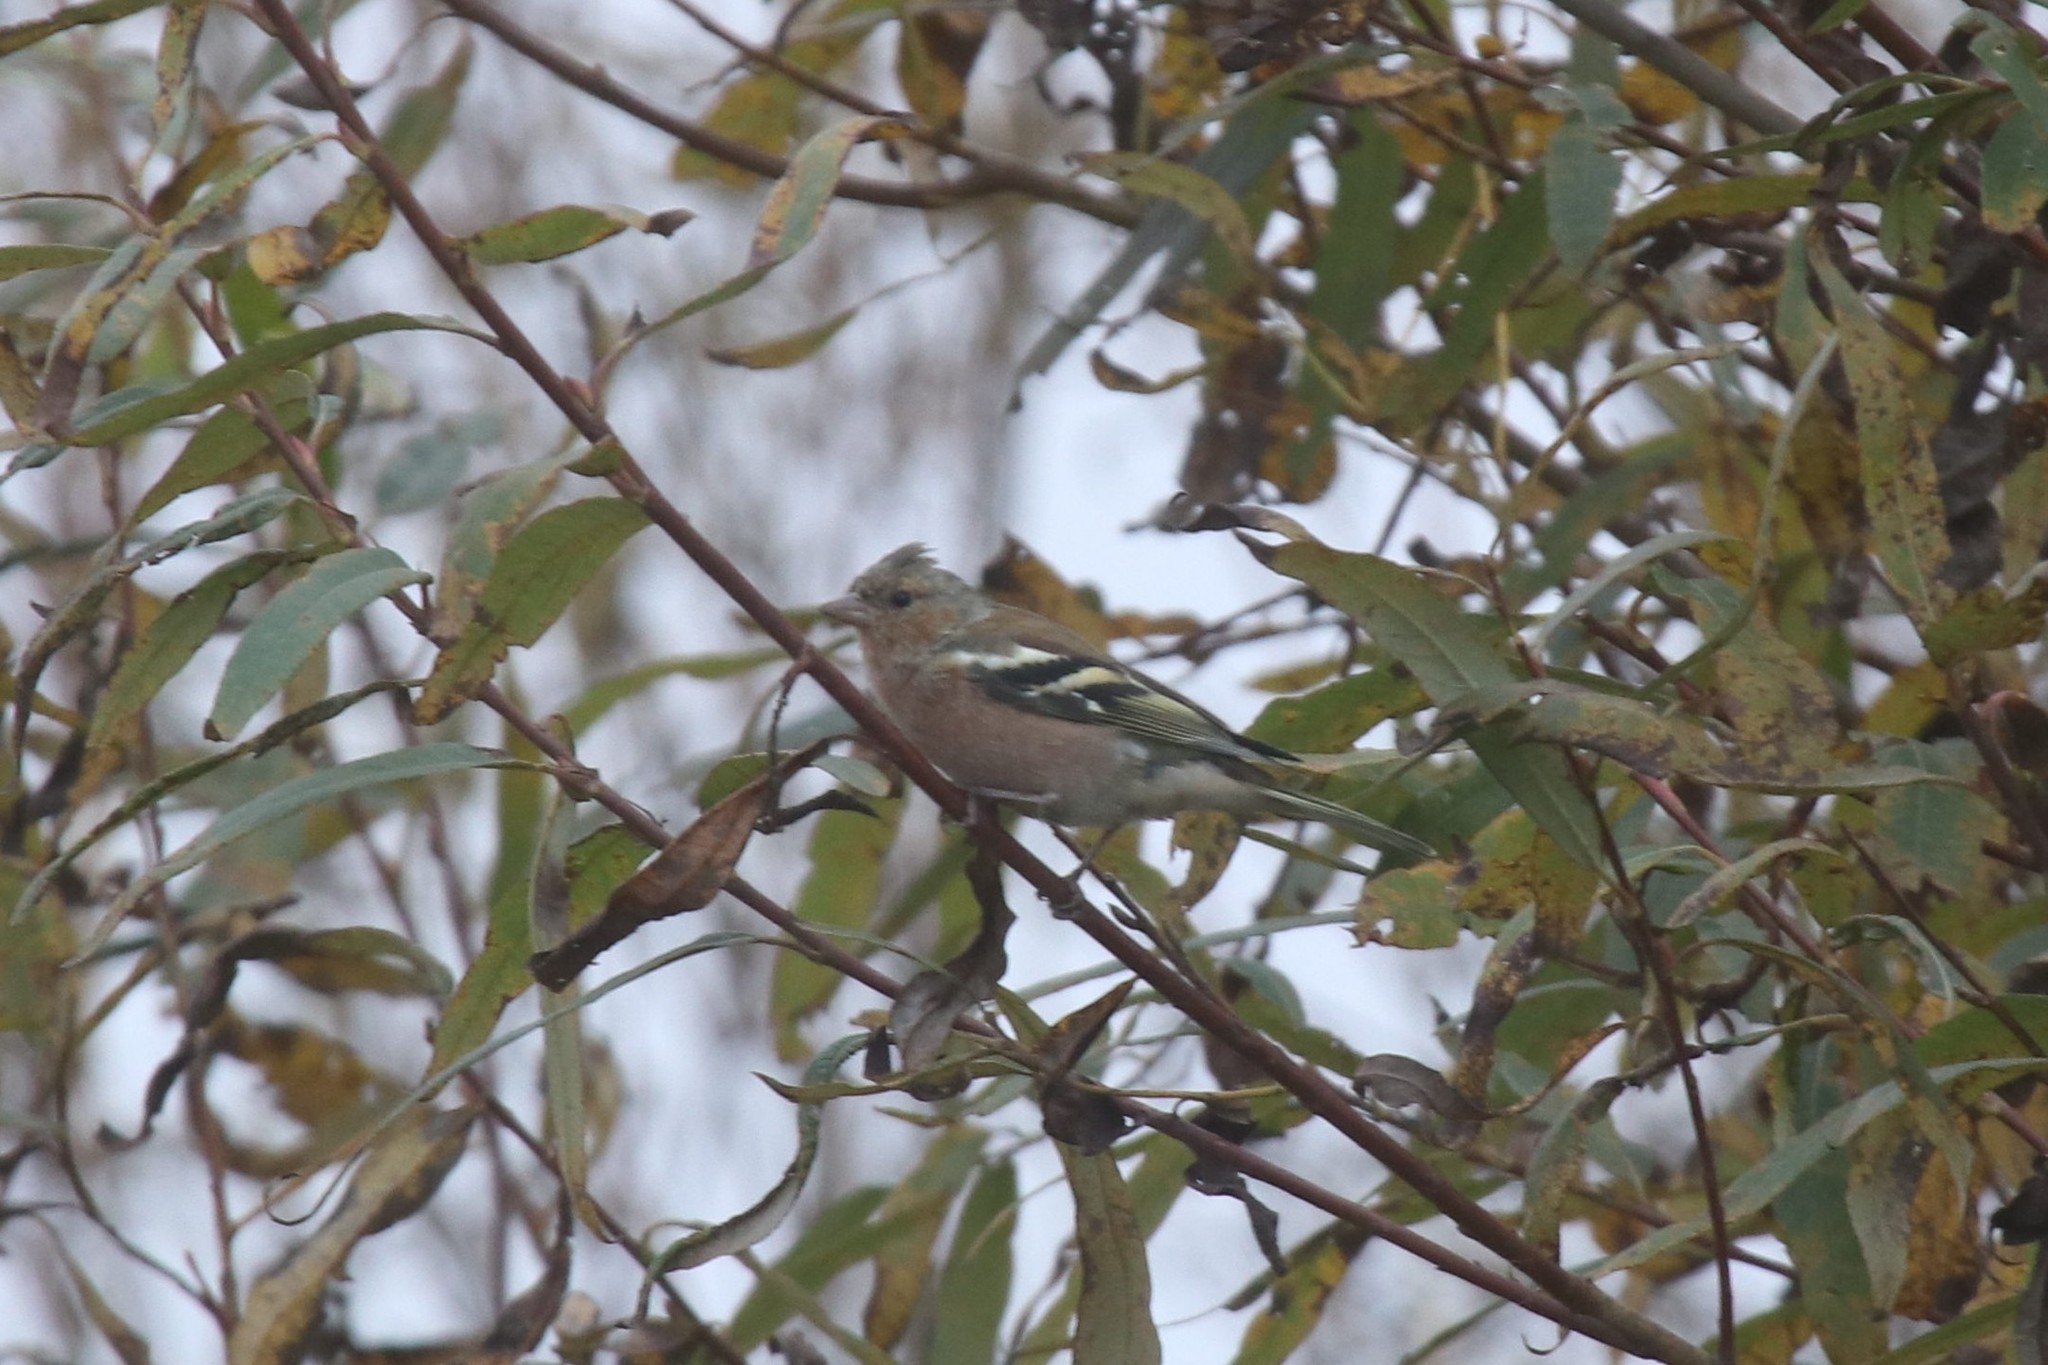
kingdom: Animalia
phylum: Chordata
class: Aves
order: Passeriformes
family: Fringillidae
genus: Fringilla
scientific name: Fringilla coelebs
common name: Common chaffinch
